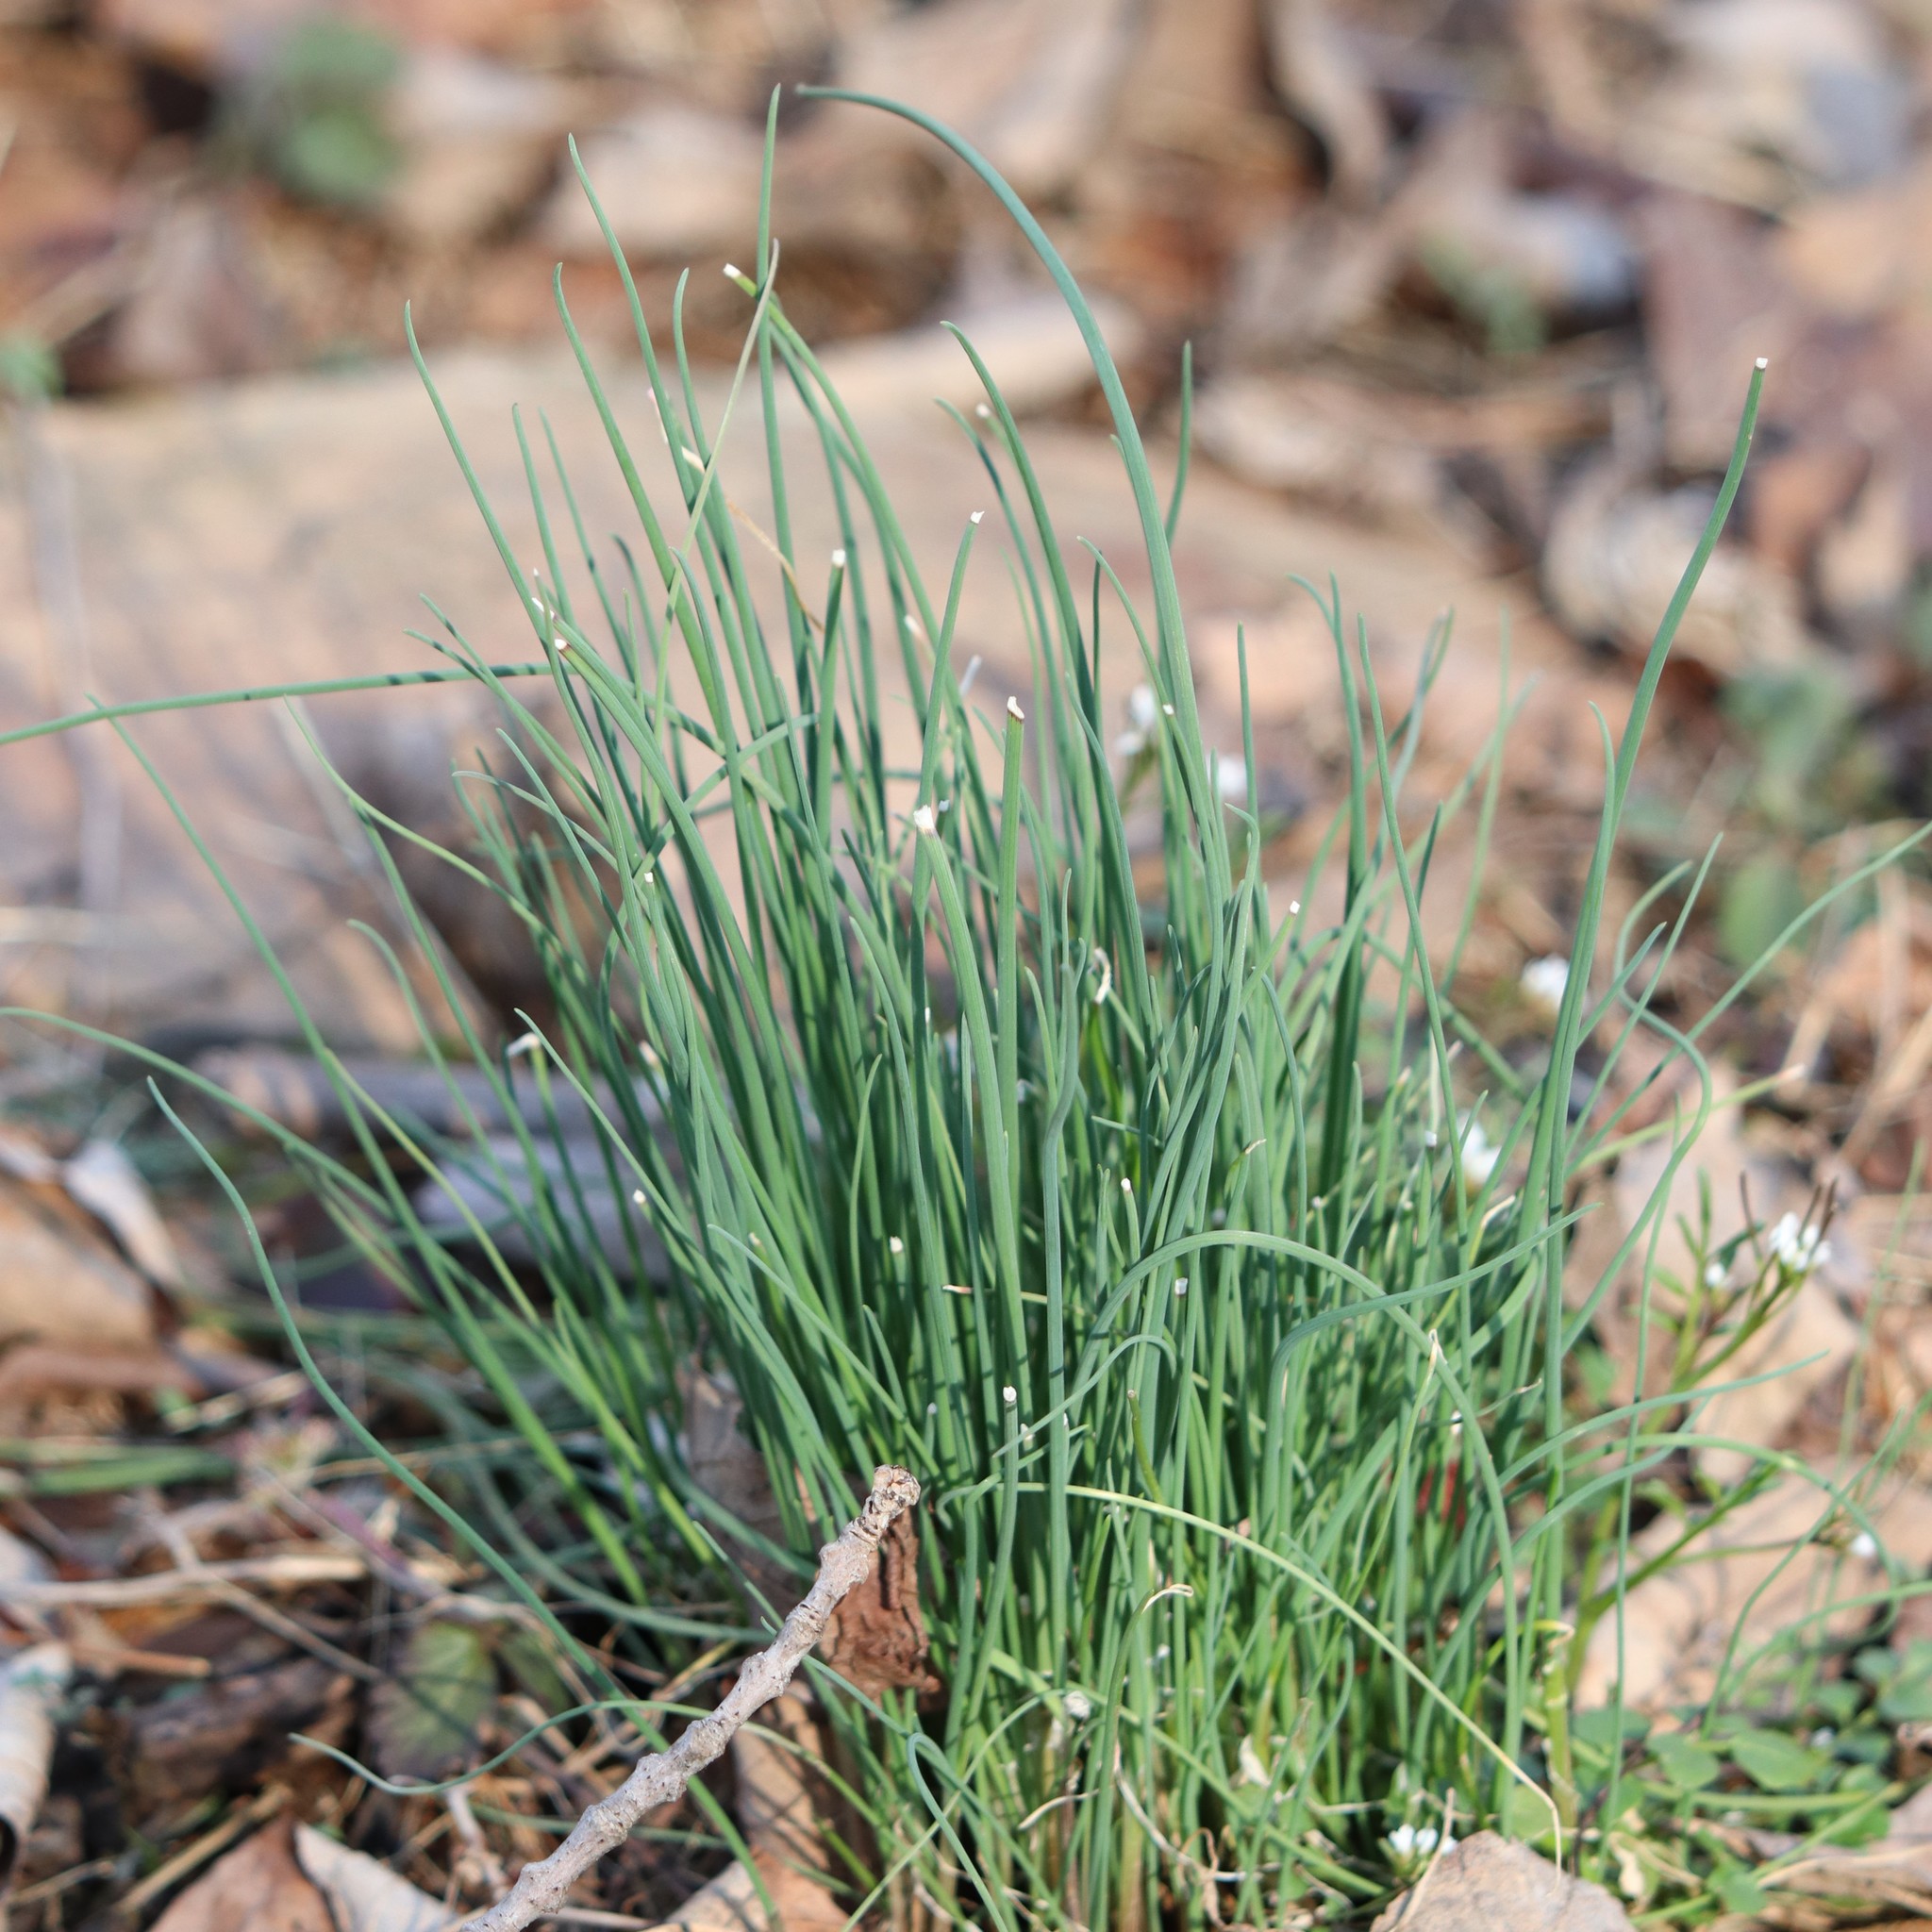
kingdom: Plantae
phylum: Tracheophyta
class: Liliopsida
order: Asparagales
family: Amaryllidaceae
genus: Allium
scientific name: Allium vineale
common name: Crow garlic
